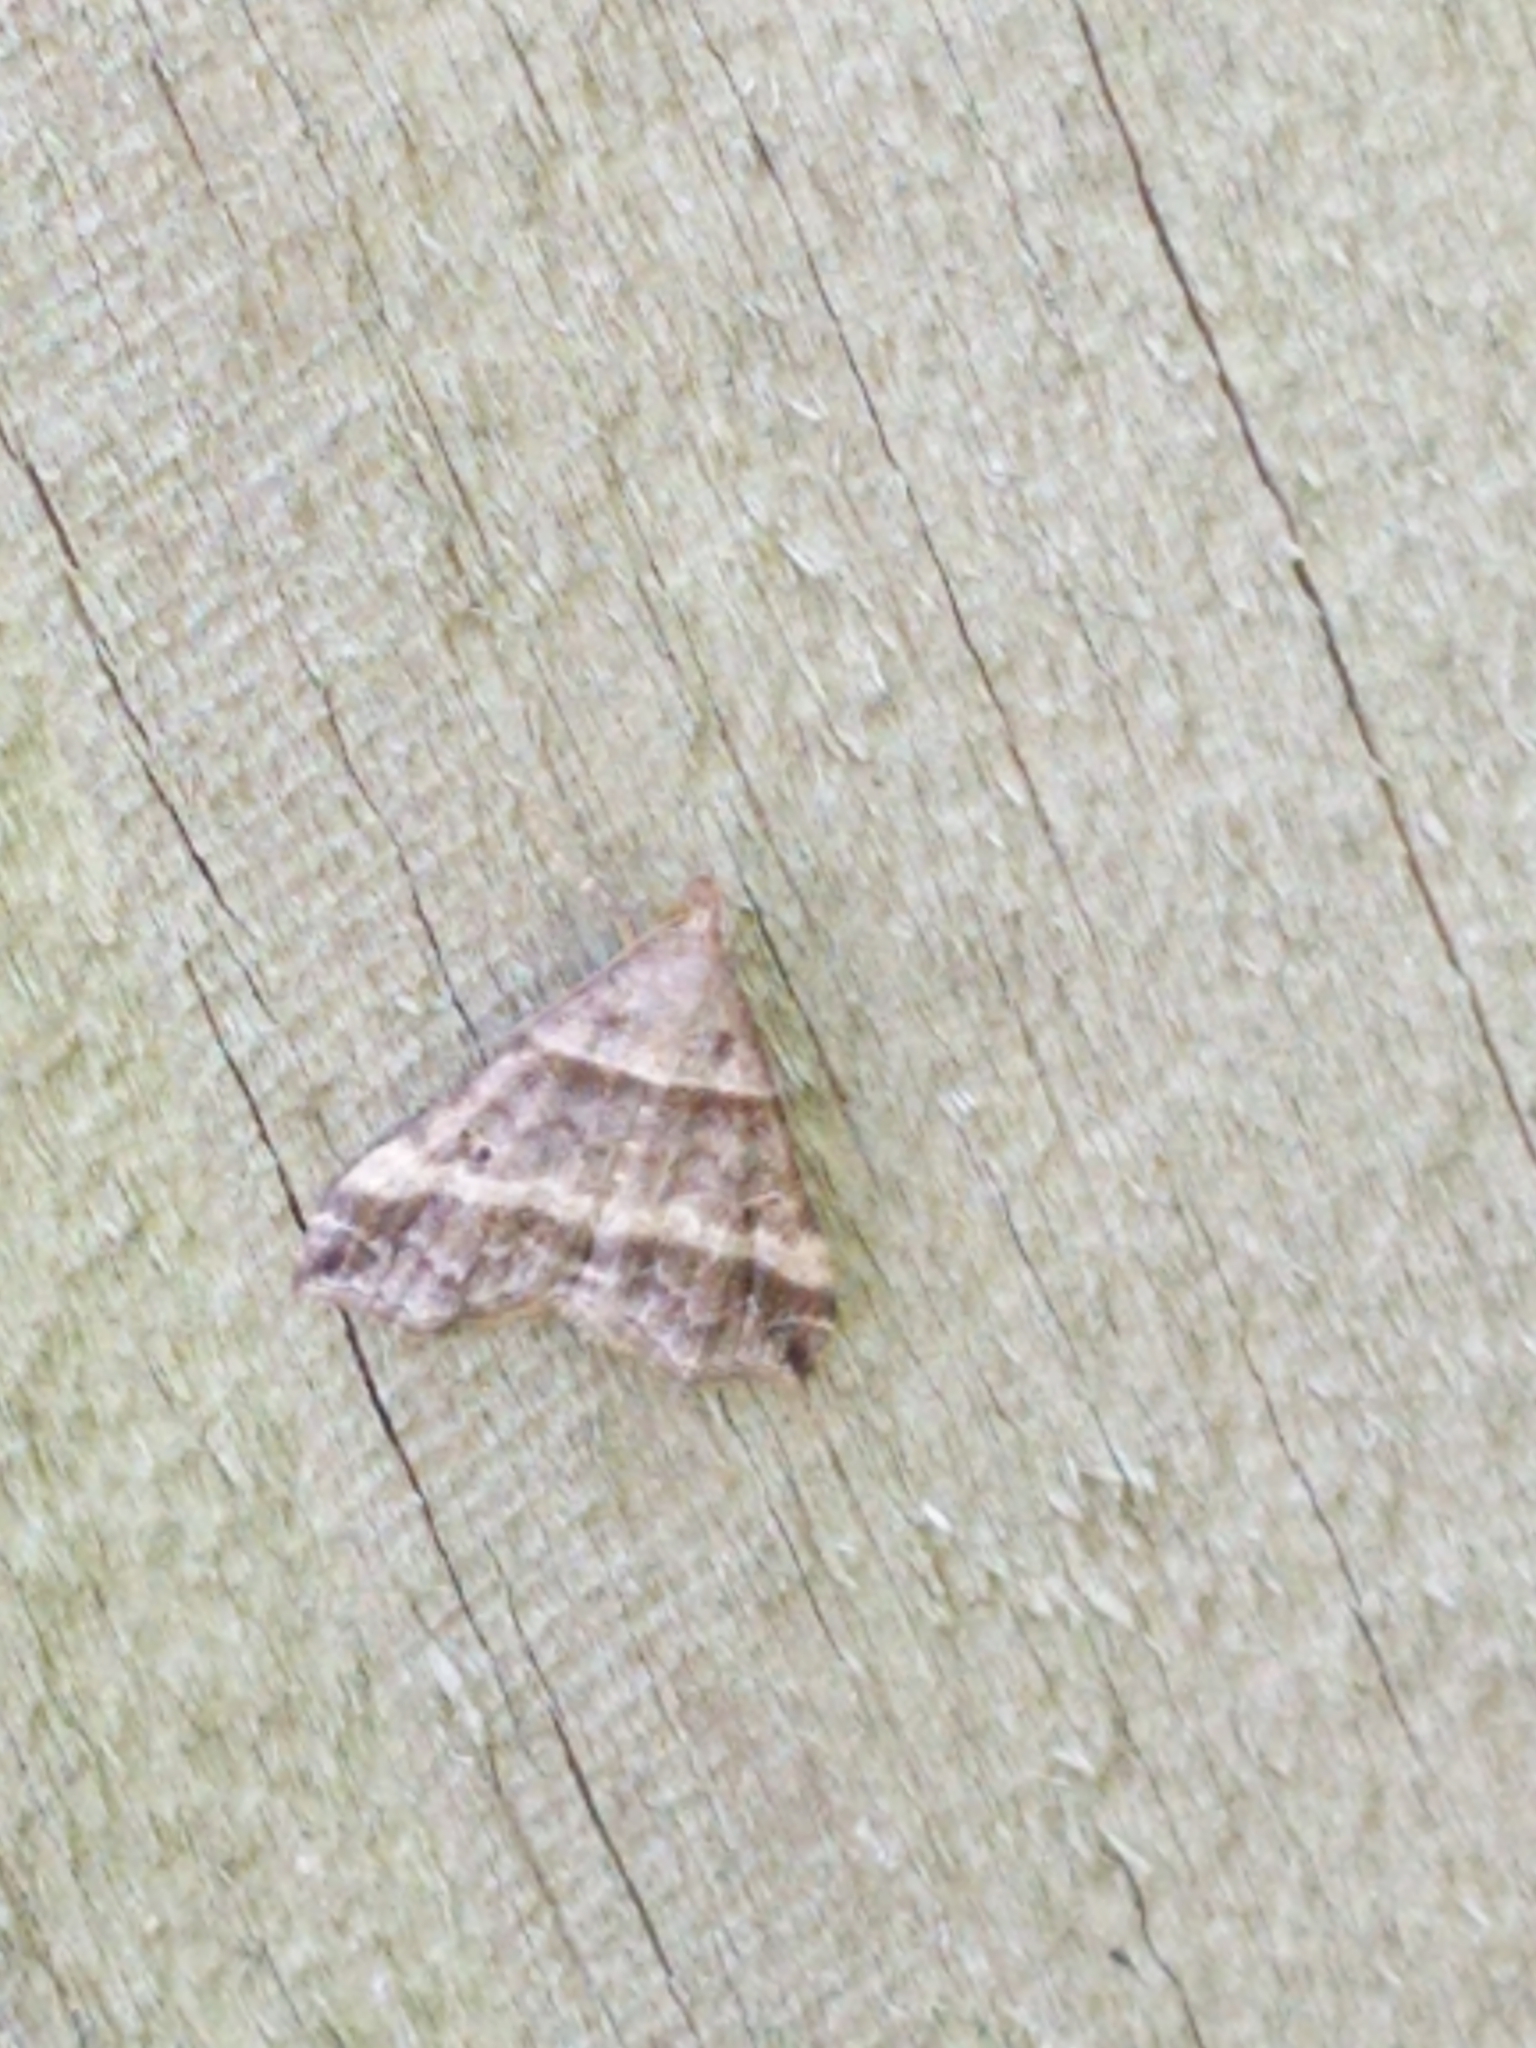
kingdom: Animalia
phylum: Arthropoda
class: Insecta
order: Lepidoptera
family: Erebidae
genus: Phaeolita
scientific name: Phaeolita pyramusalis
